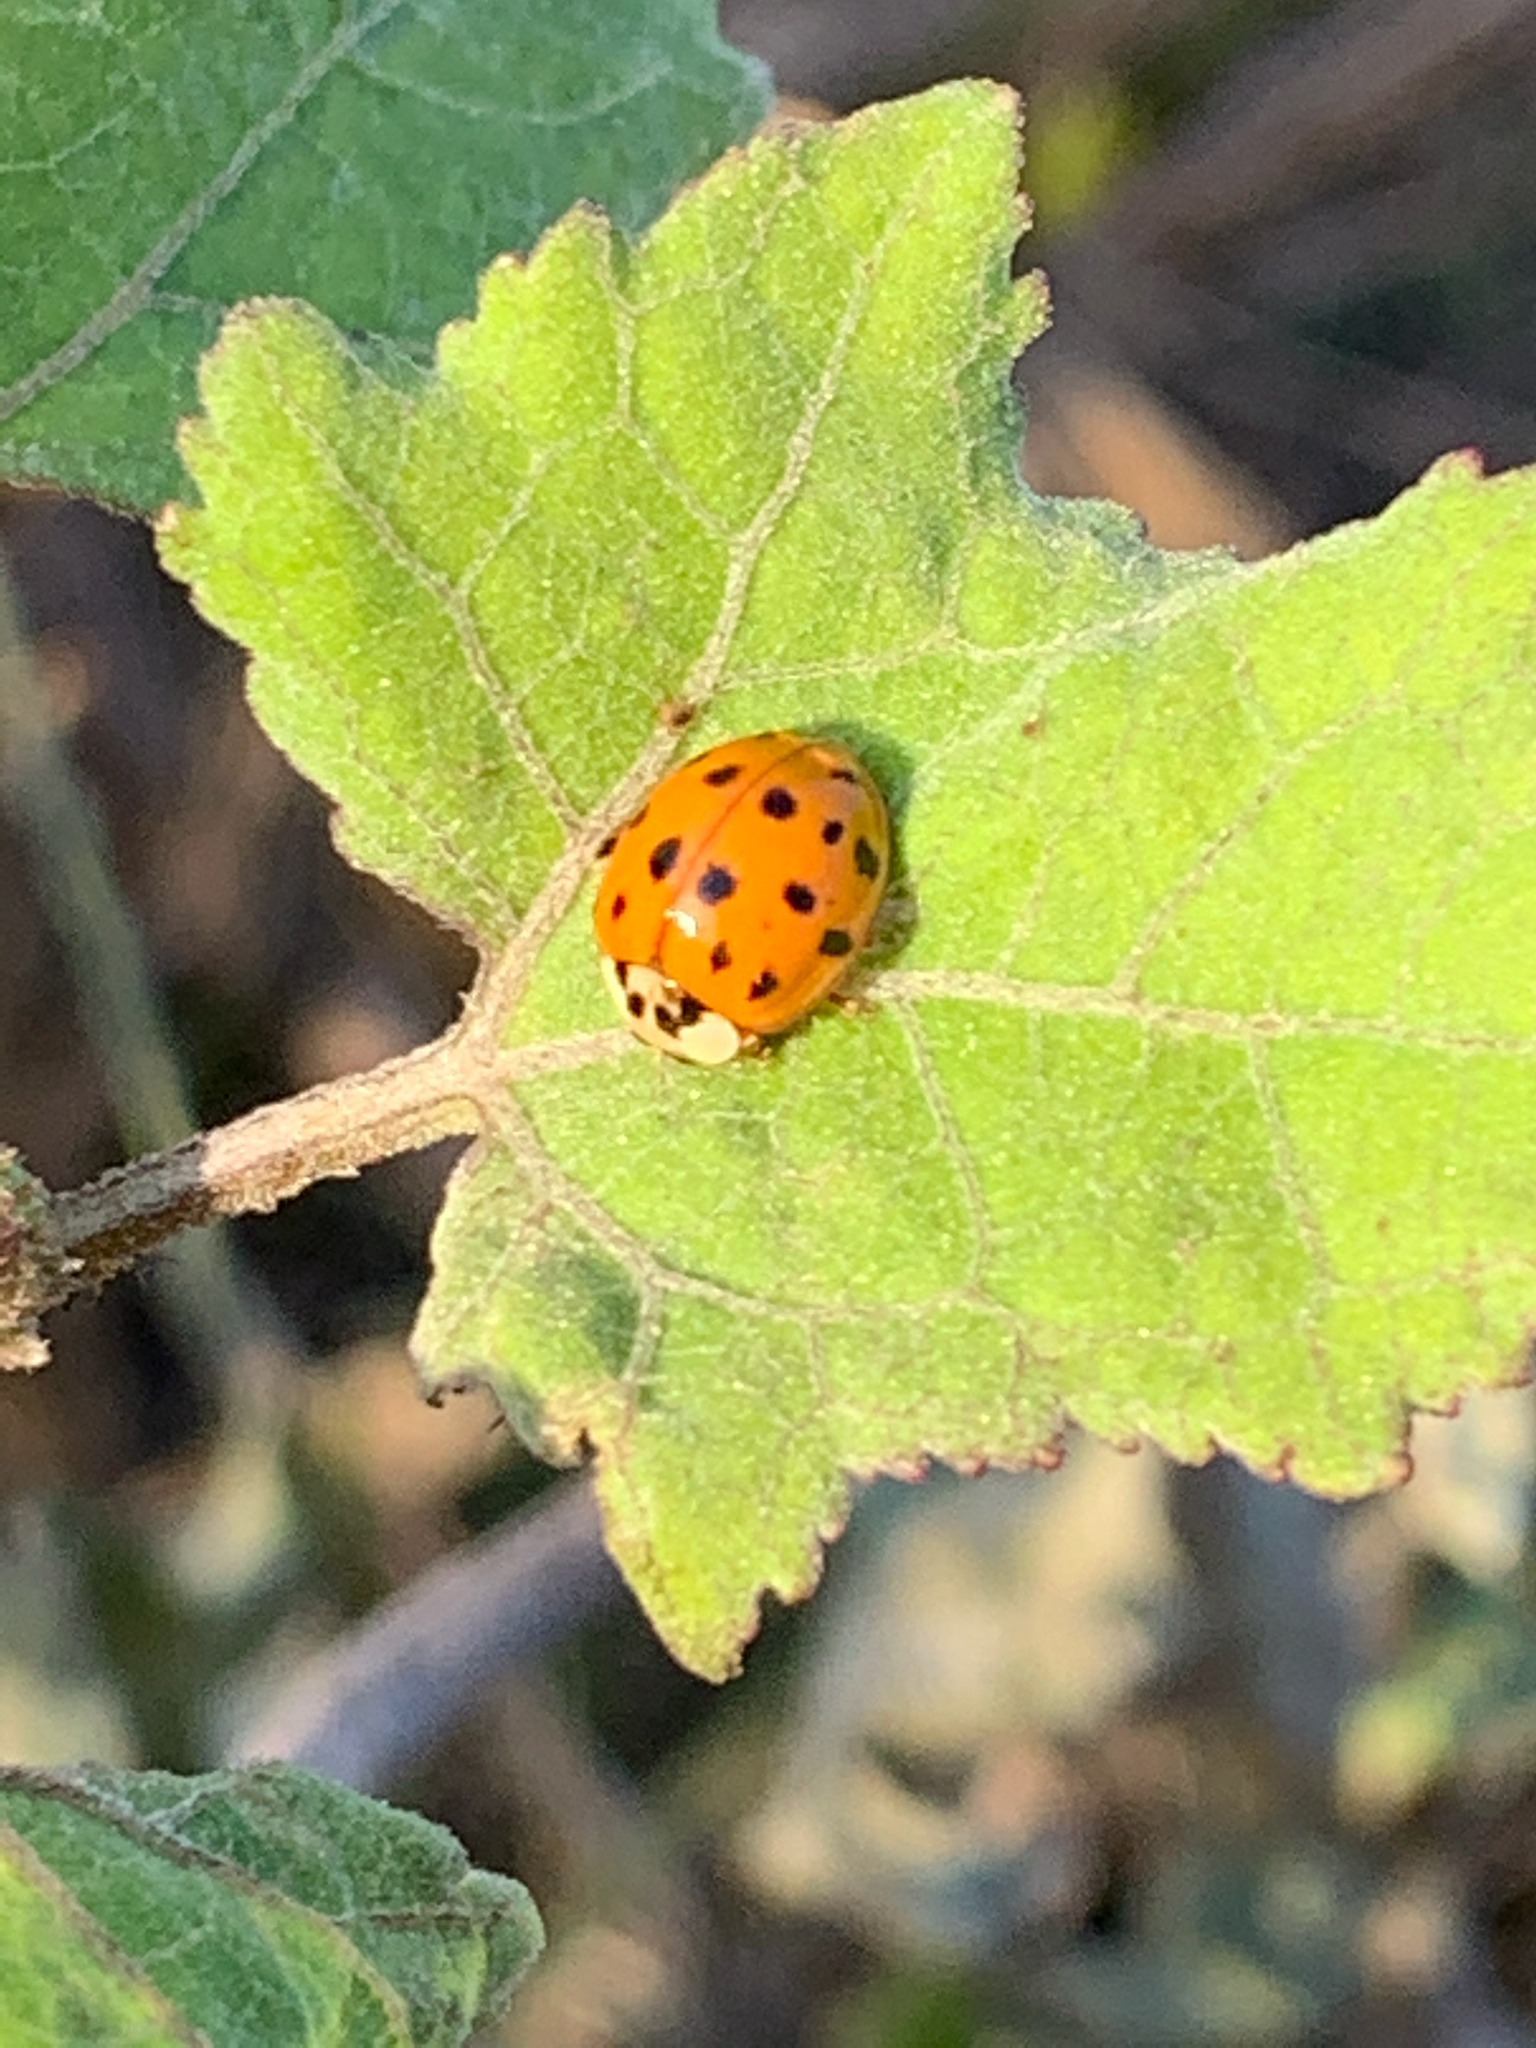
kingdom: Animalia
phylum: Arthropoda
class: Insecta
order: Coleoptera
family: Coccinellidae
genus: Harmonia
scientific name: Harmonia axyridis
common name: Harlequin ladybird
